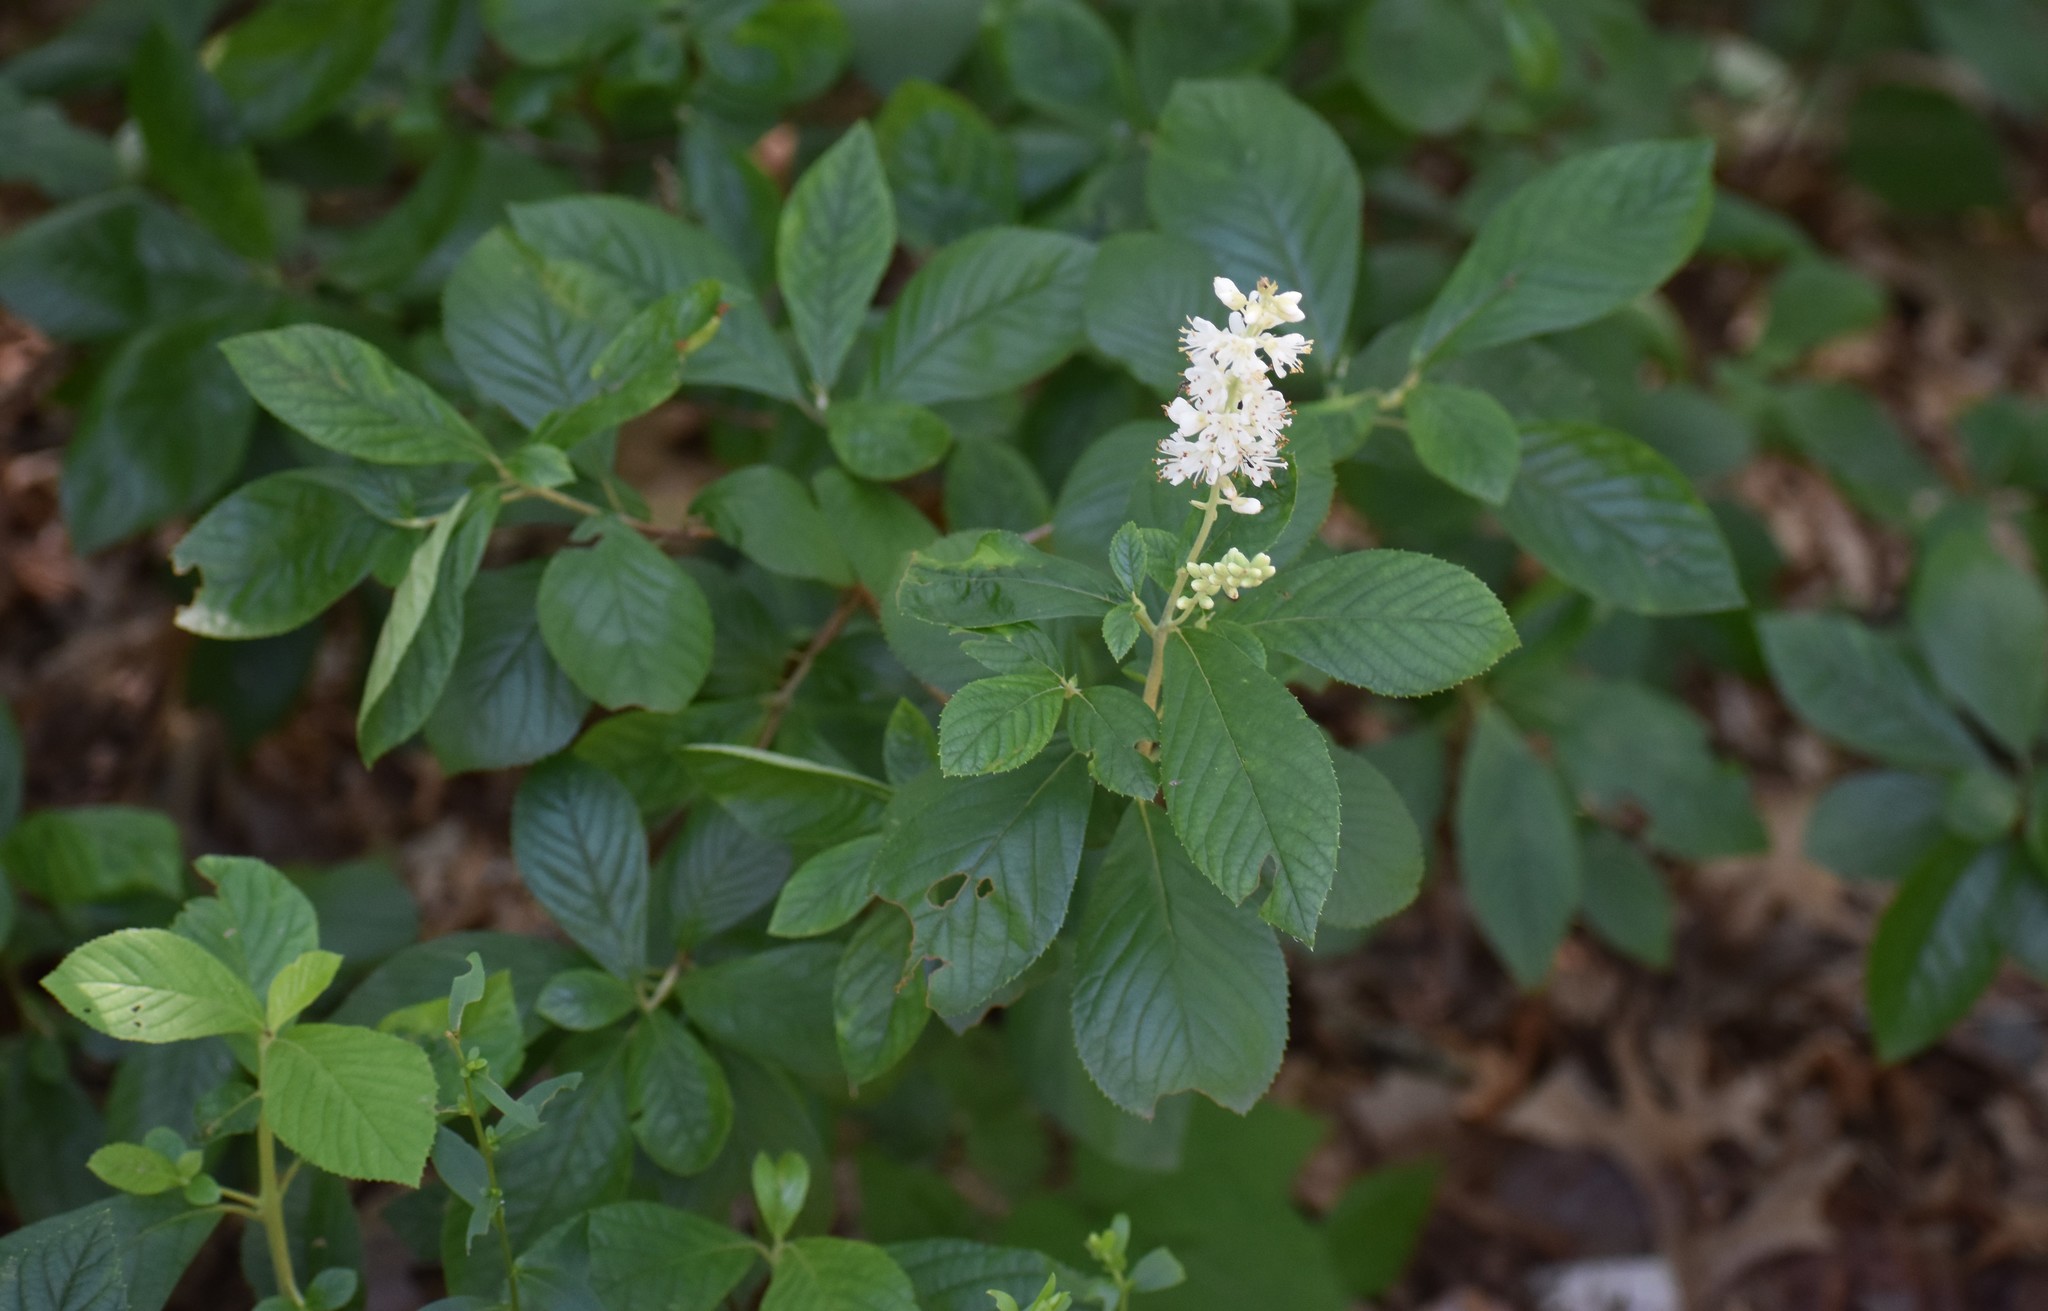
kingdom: Plantae
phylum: Tracheophyta
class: Magnoliopsida
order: Ericales
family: Clethraceae
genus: Clethra
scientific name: Clethra alnifolia
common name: Sweet pepperbush
